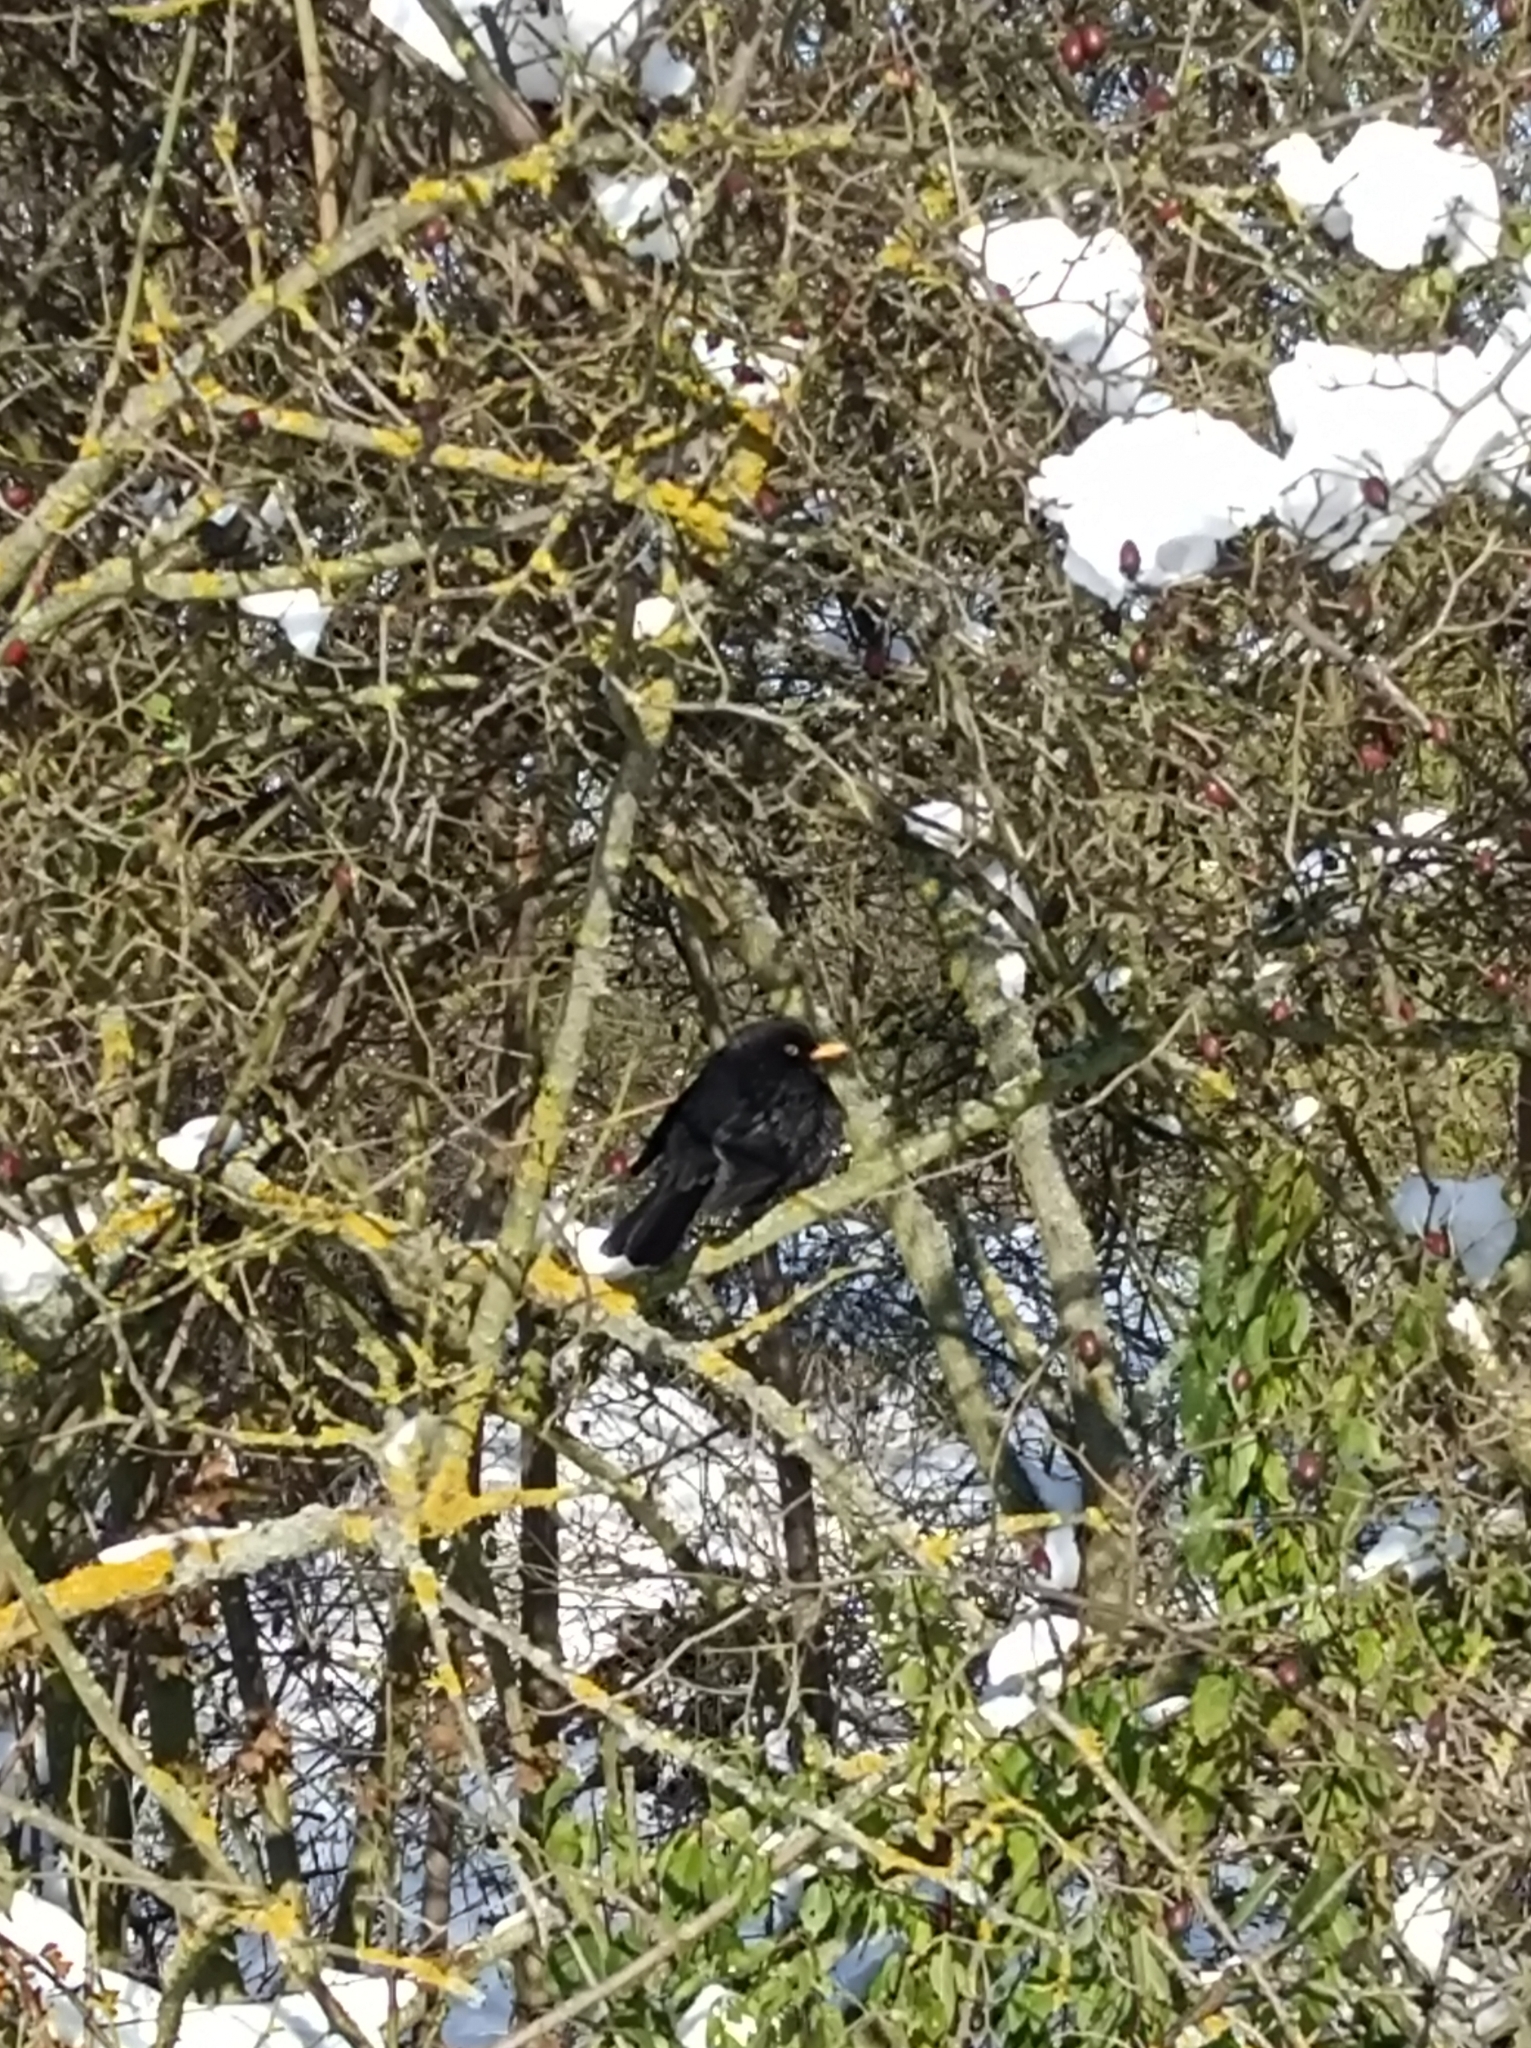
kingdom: Animalia
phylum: Chordata
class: Aves
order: Passeriformes
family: Turdidae
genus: Turdus
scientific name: Turdus merula
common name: Common blackbird
